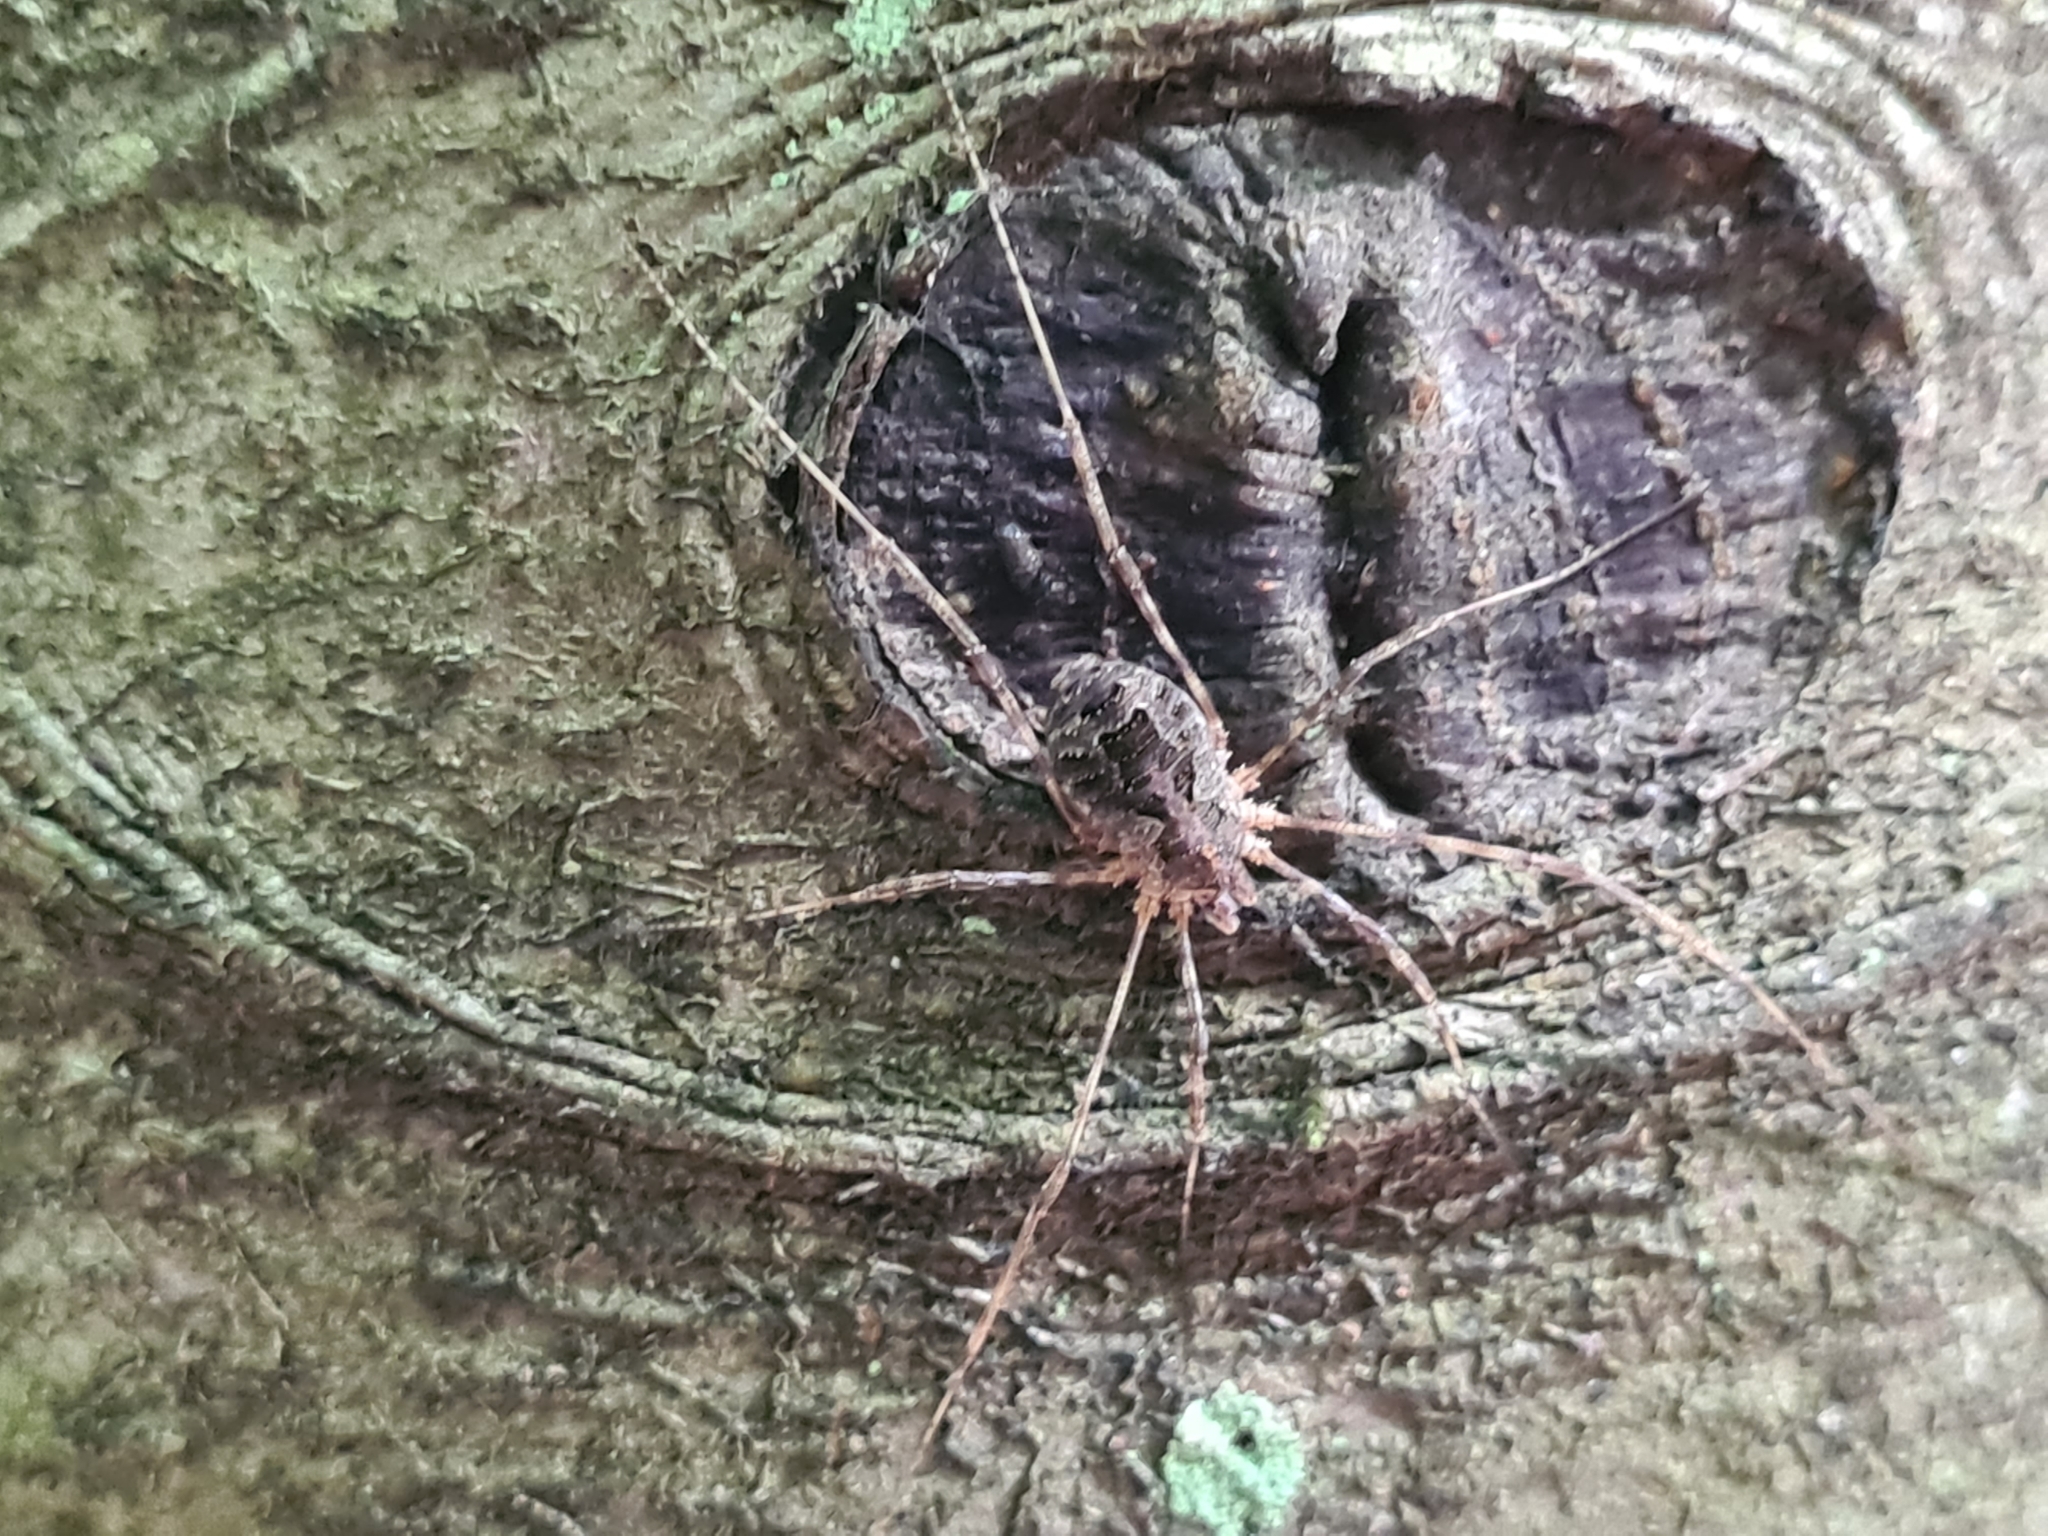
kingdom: Animalia
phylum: Arthropoda
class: Arachnida
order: Opiliones
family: Phalangiidae
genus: Lacinius
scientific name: Lacinius dentiger
